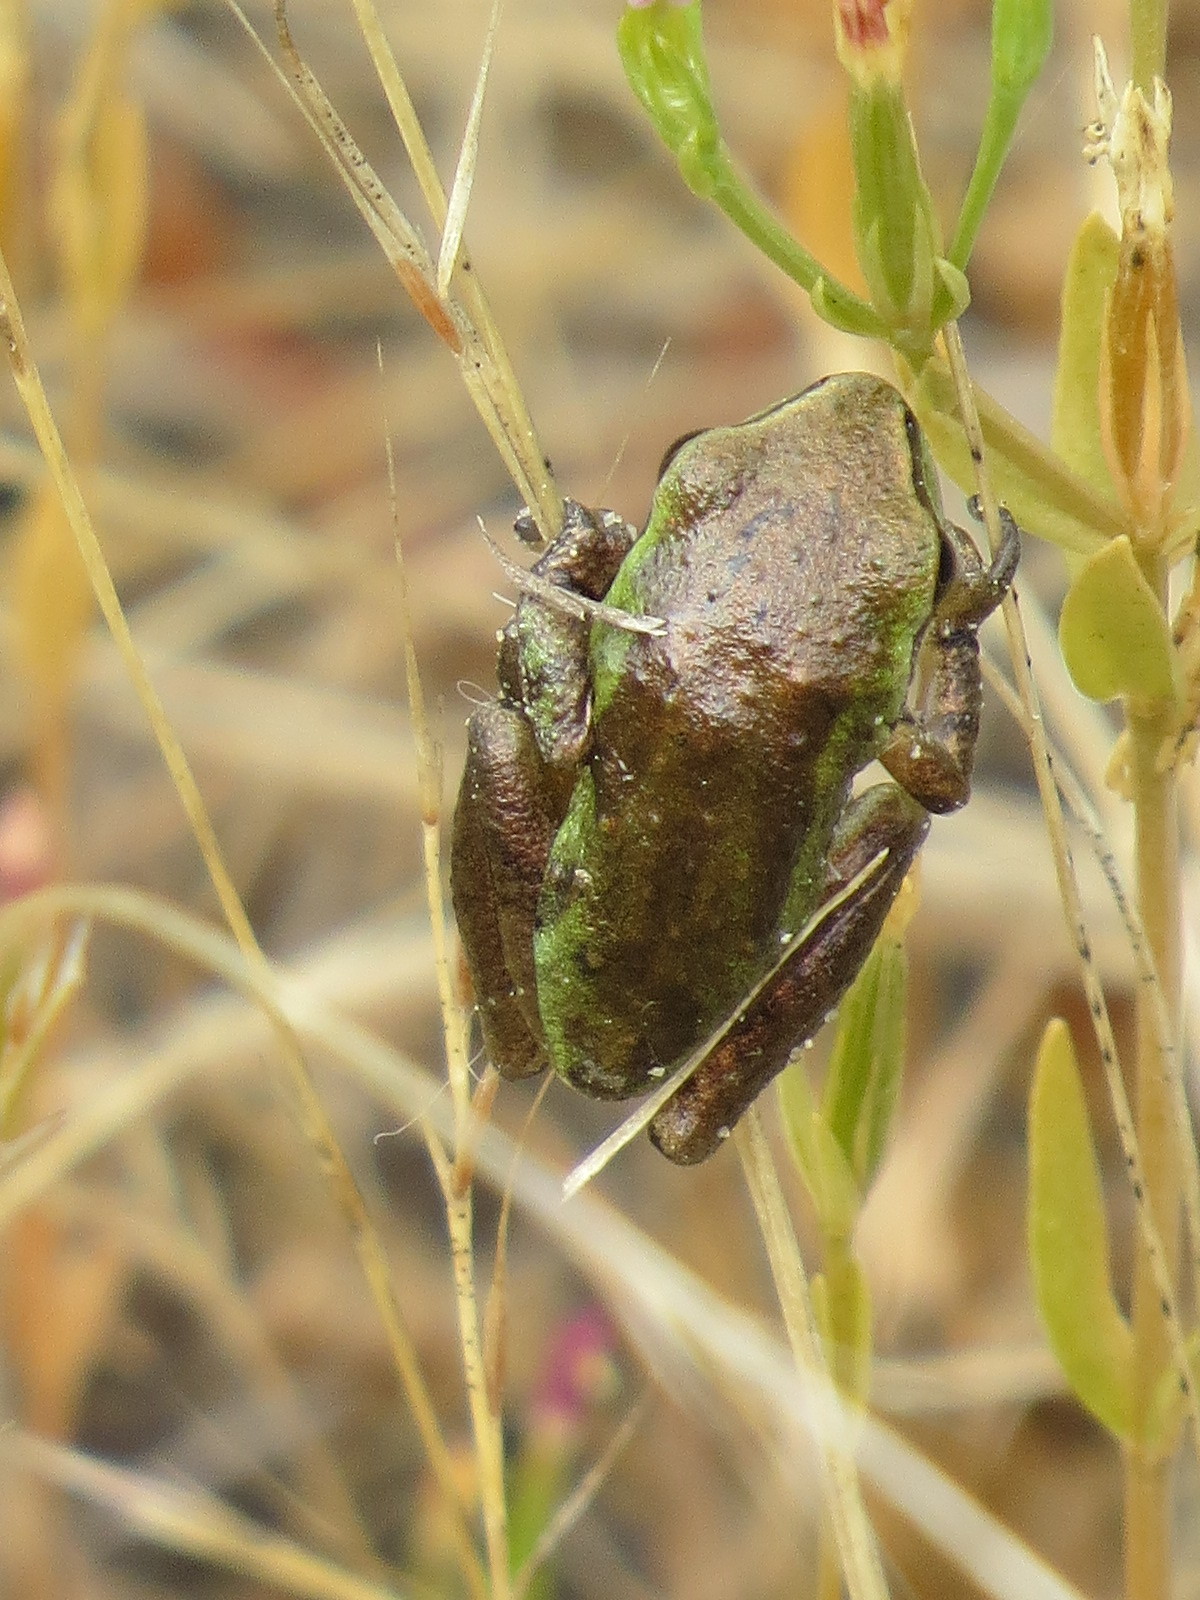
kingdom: Animalia
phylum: Chordata
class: Amphibia
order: Anura
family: Hylidae
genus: Pseudacris
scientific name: Pseudacris regilla
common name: Pacific chorus frog
